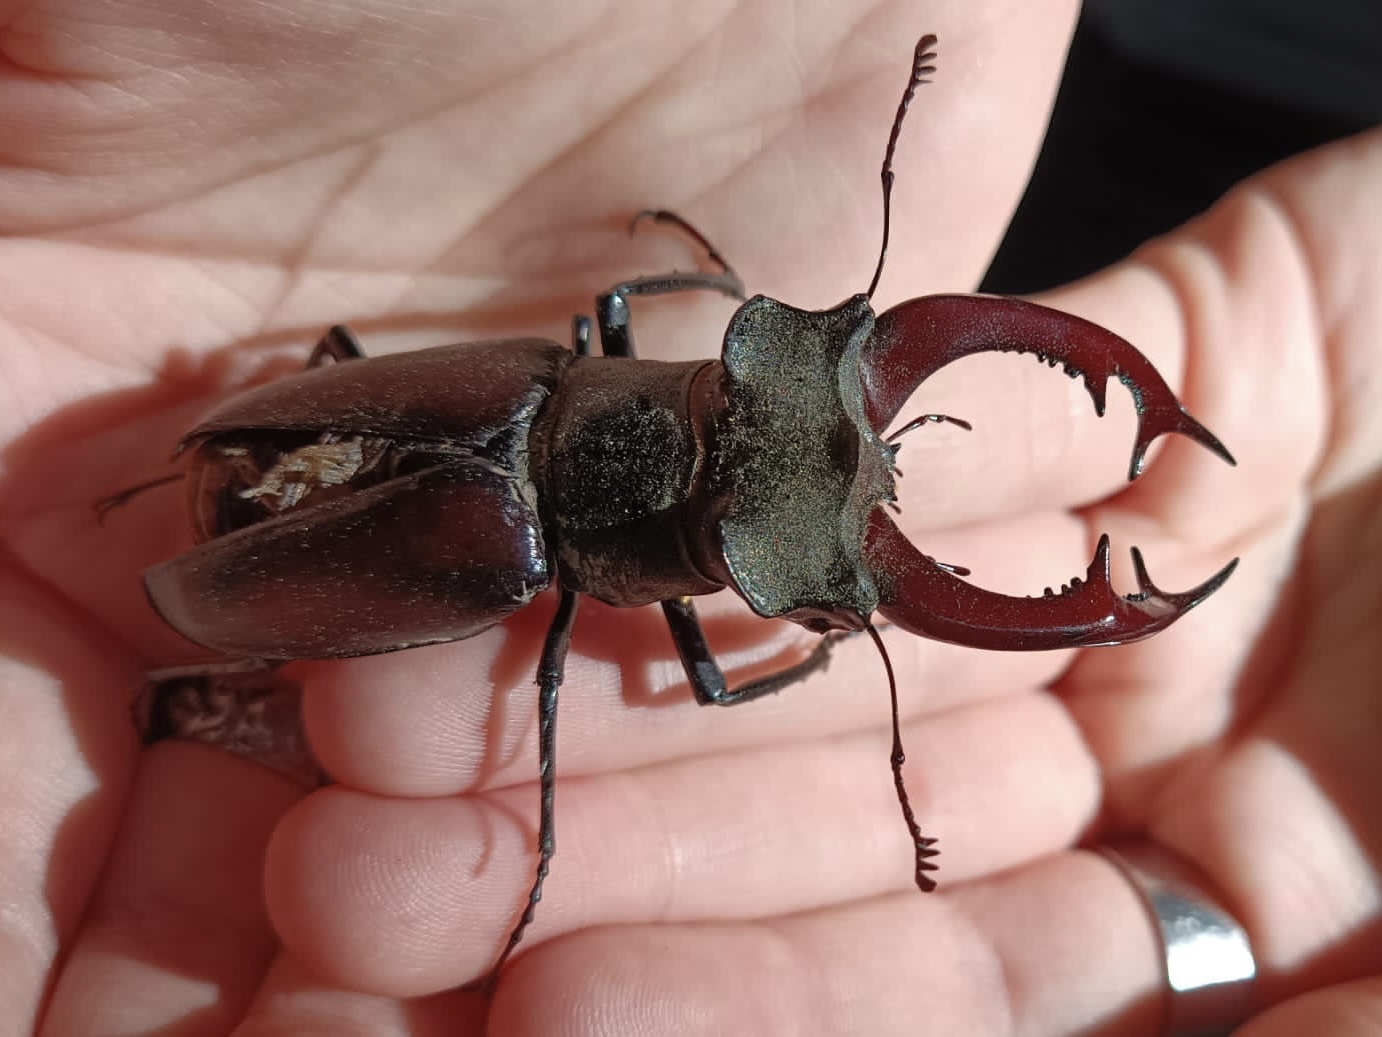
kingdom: Animalia
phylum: Arthropoda
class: Insecta
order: Coleoptera
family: Lucanidae
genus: Lucanus
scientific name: Lucanus cervus
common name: Stag beetle
